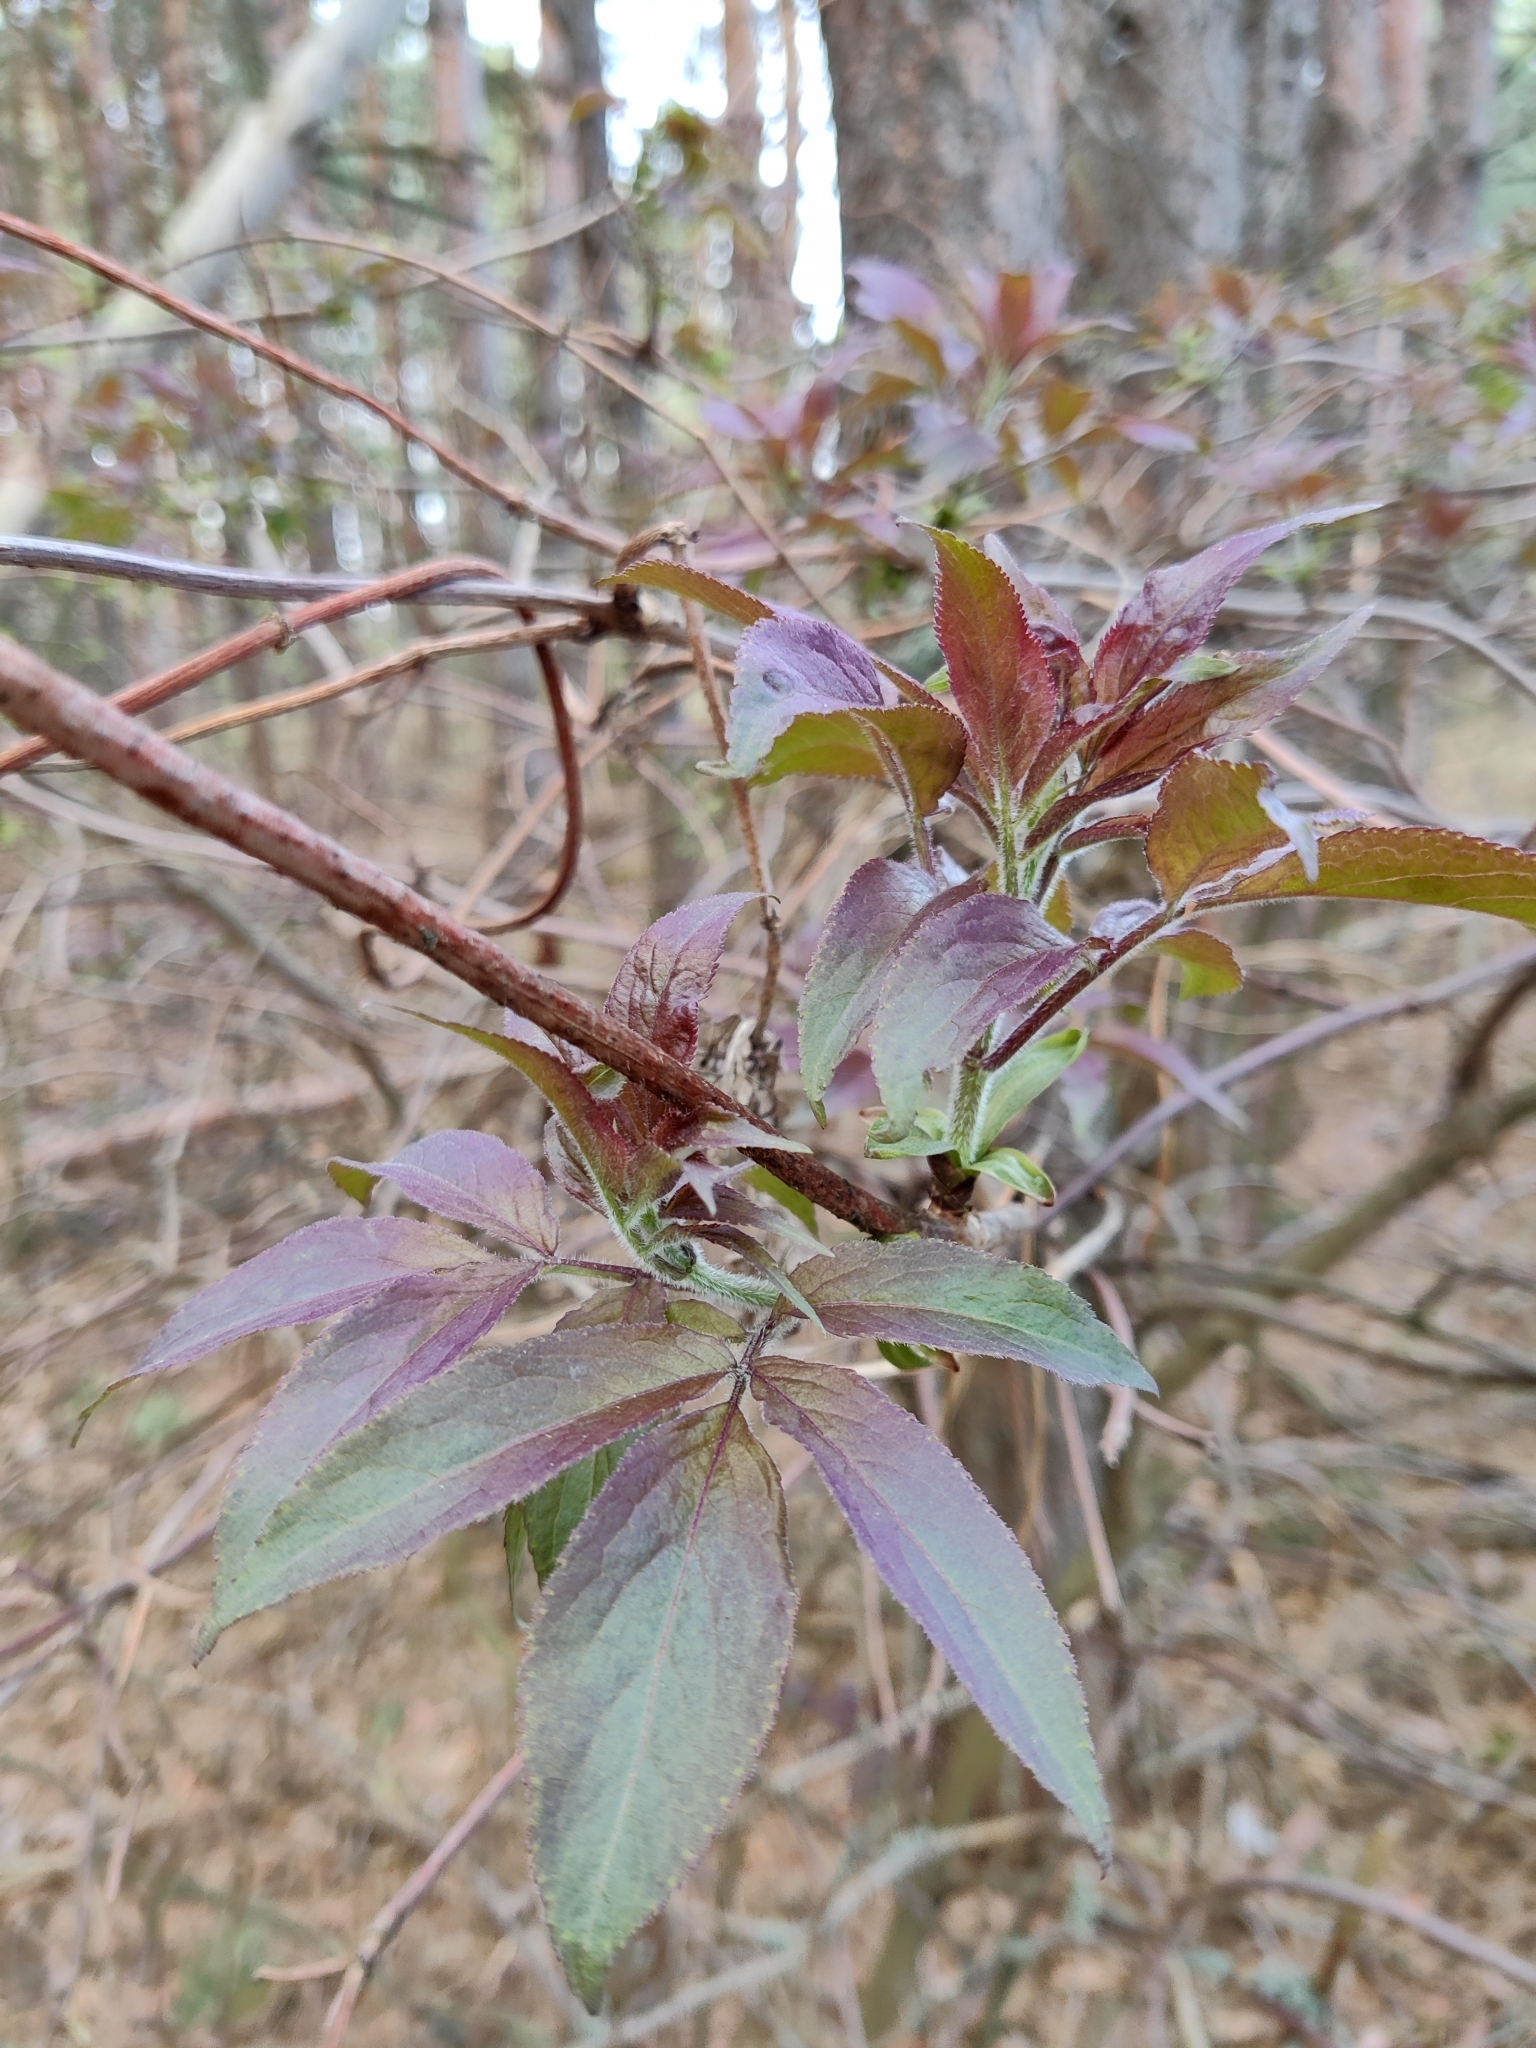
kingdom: Plantae
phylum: Tracheophyta
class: Magnoliopsida
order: Dipsacales
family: Viburnaceae
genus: Sambucus
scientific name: Sambucus racemosa
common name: Red-berried elder
